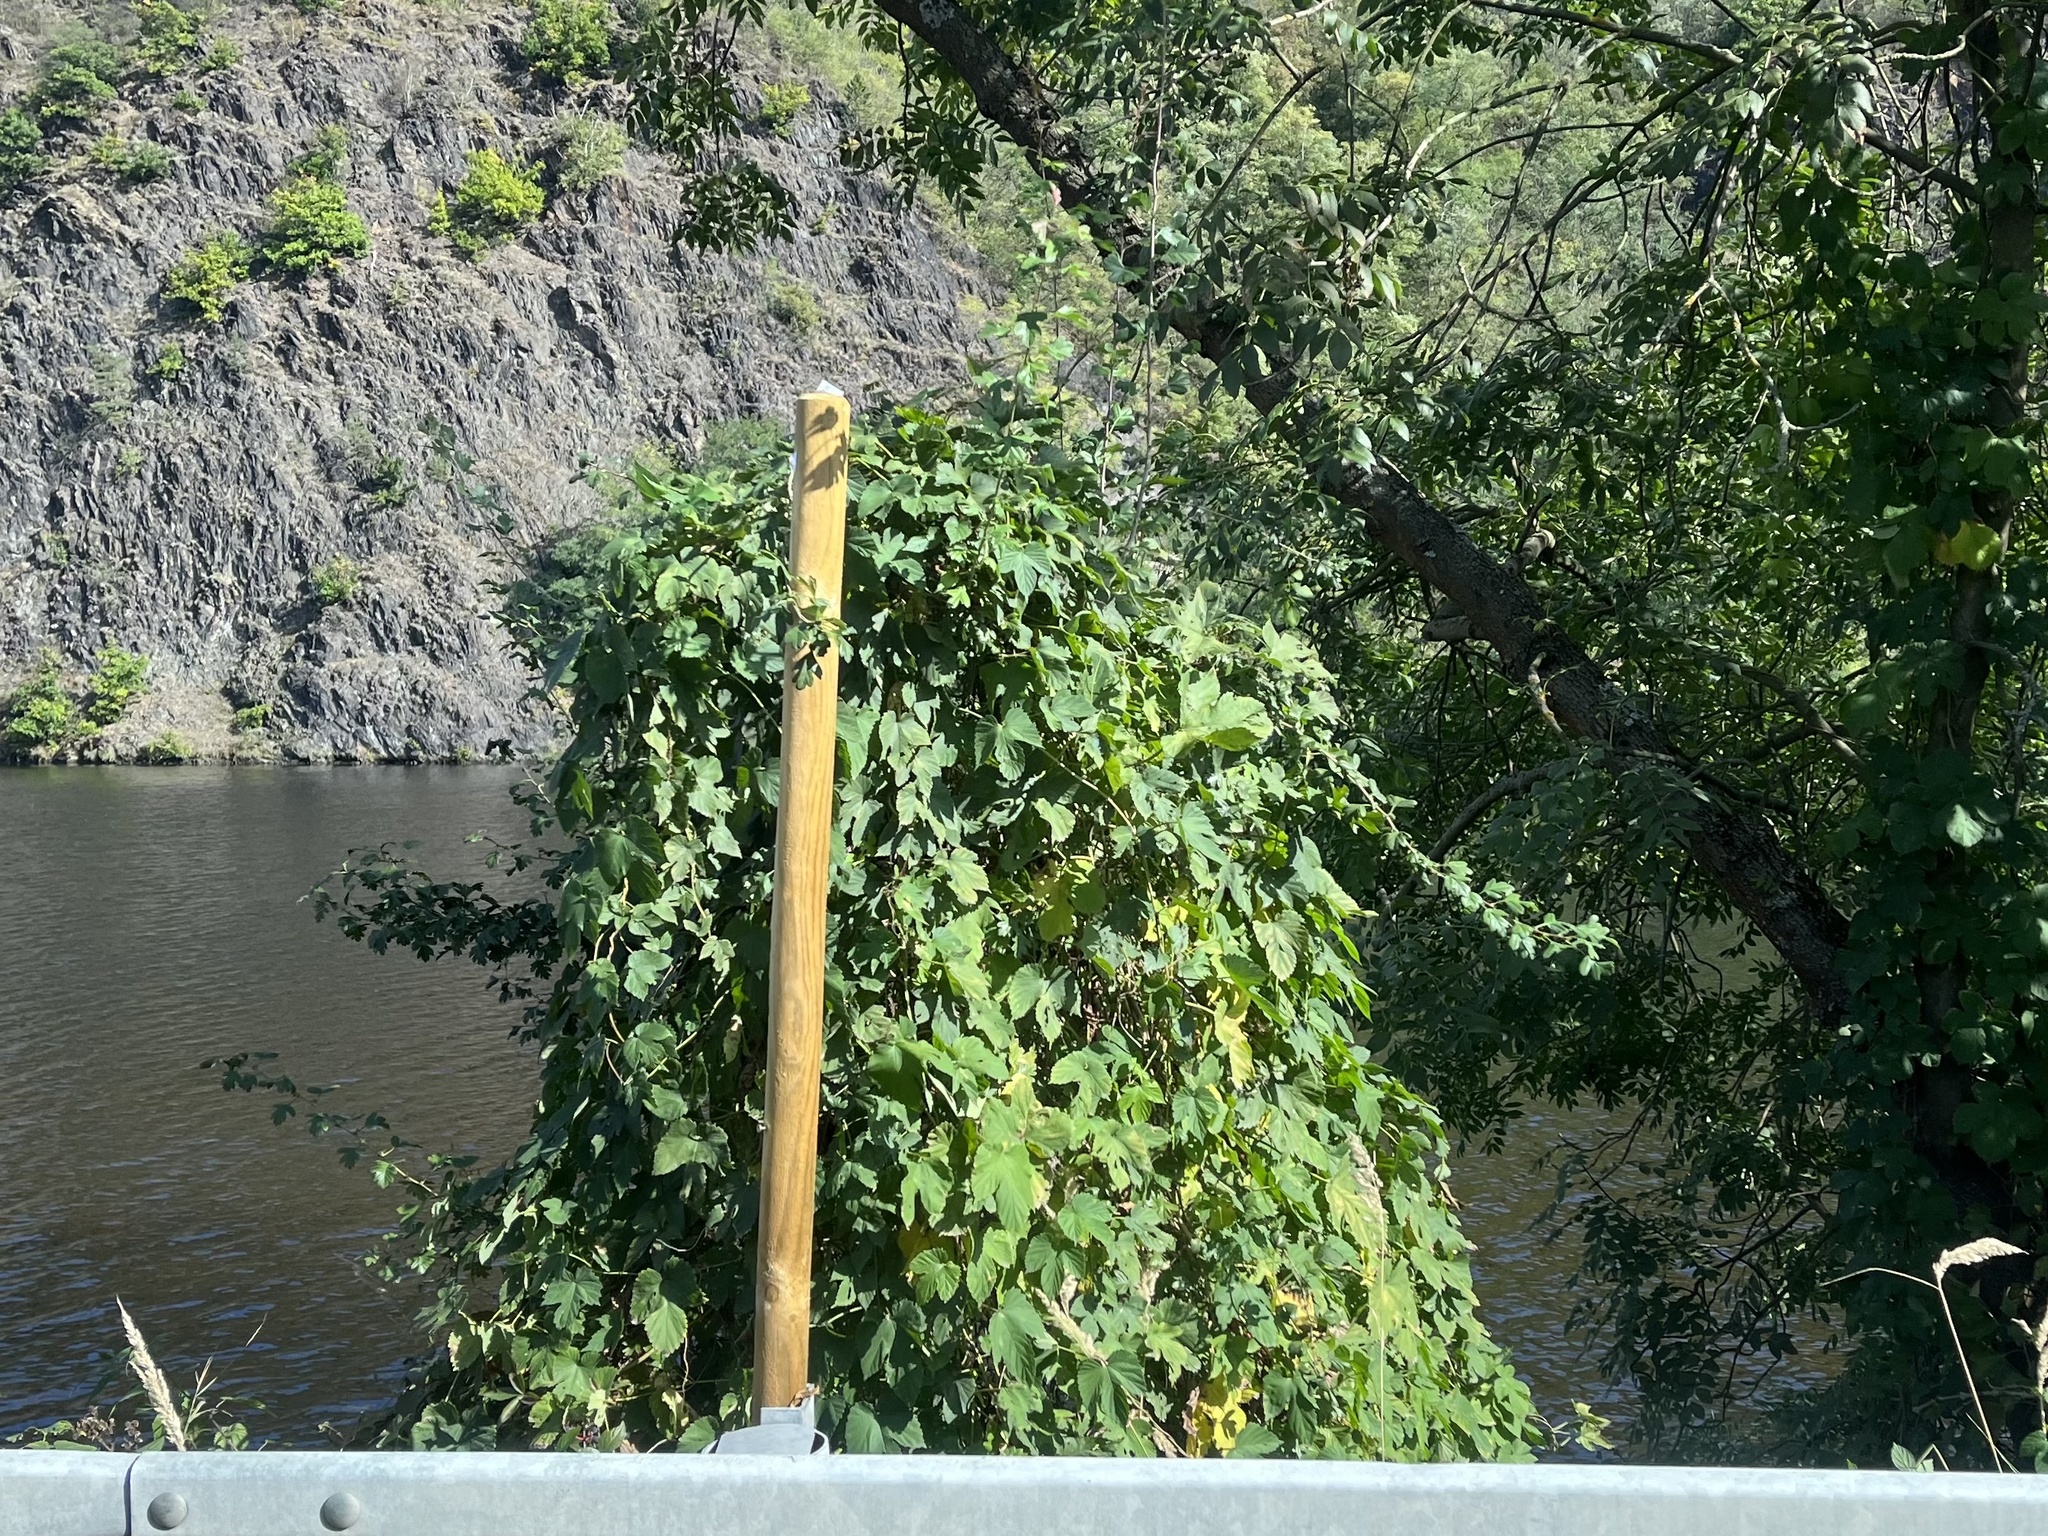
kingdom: Plantae
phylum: Tracheophyta
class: Magnoliopsida
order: Rosales
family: Cannabaceae
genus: Humulus
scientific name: Humulus lupulus
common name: Hop
